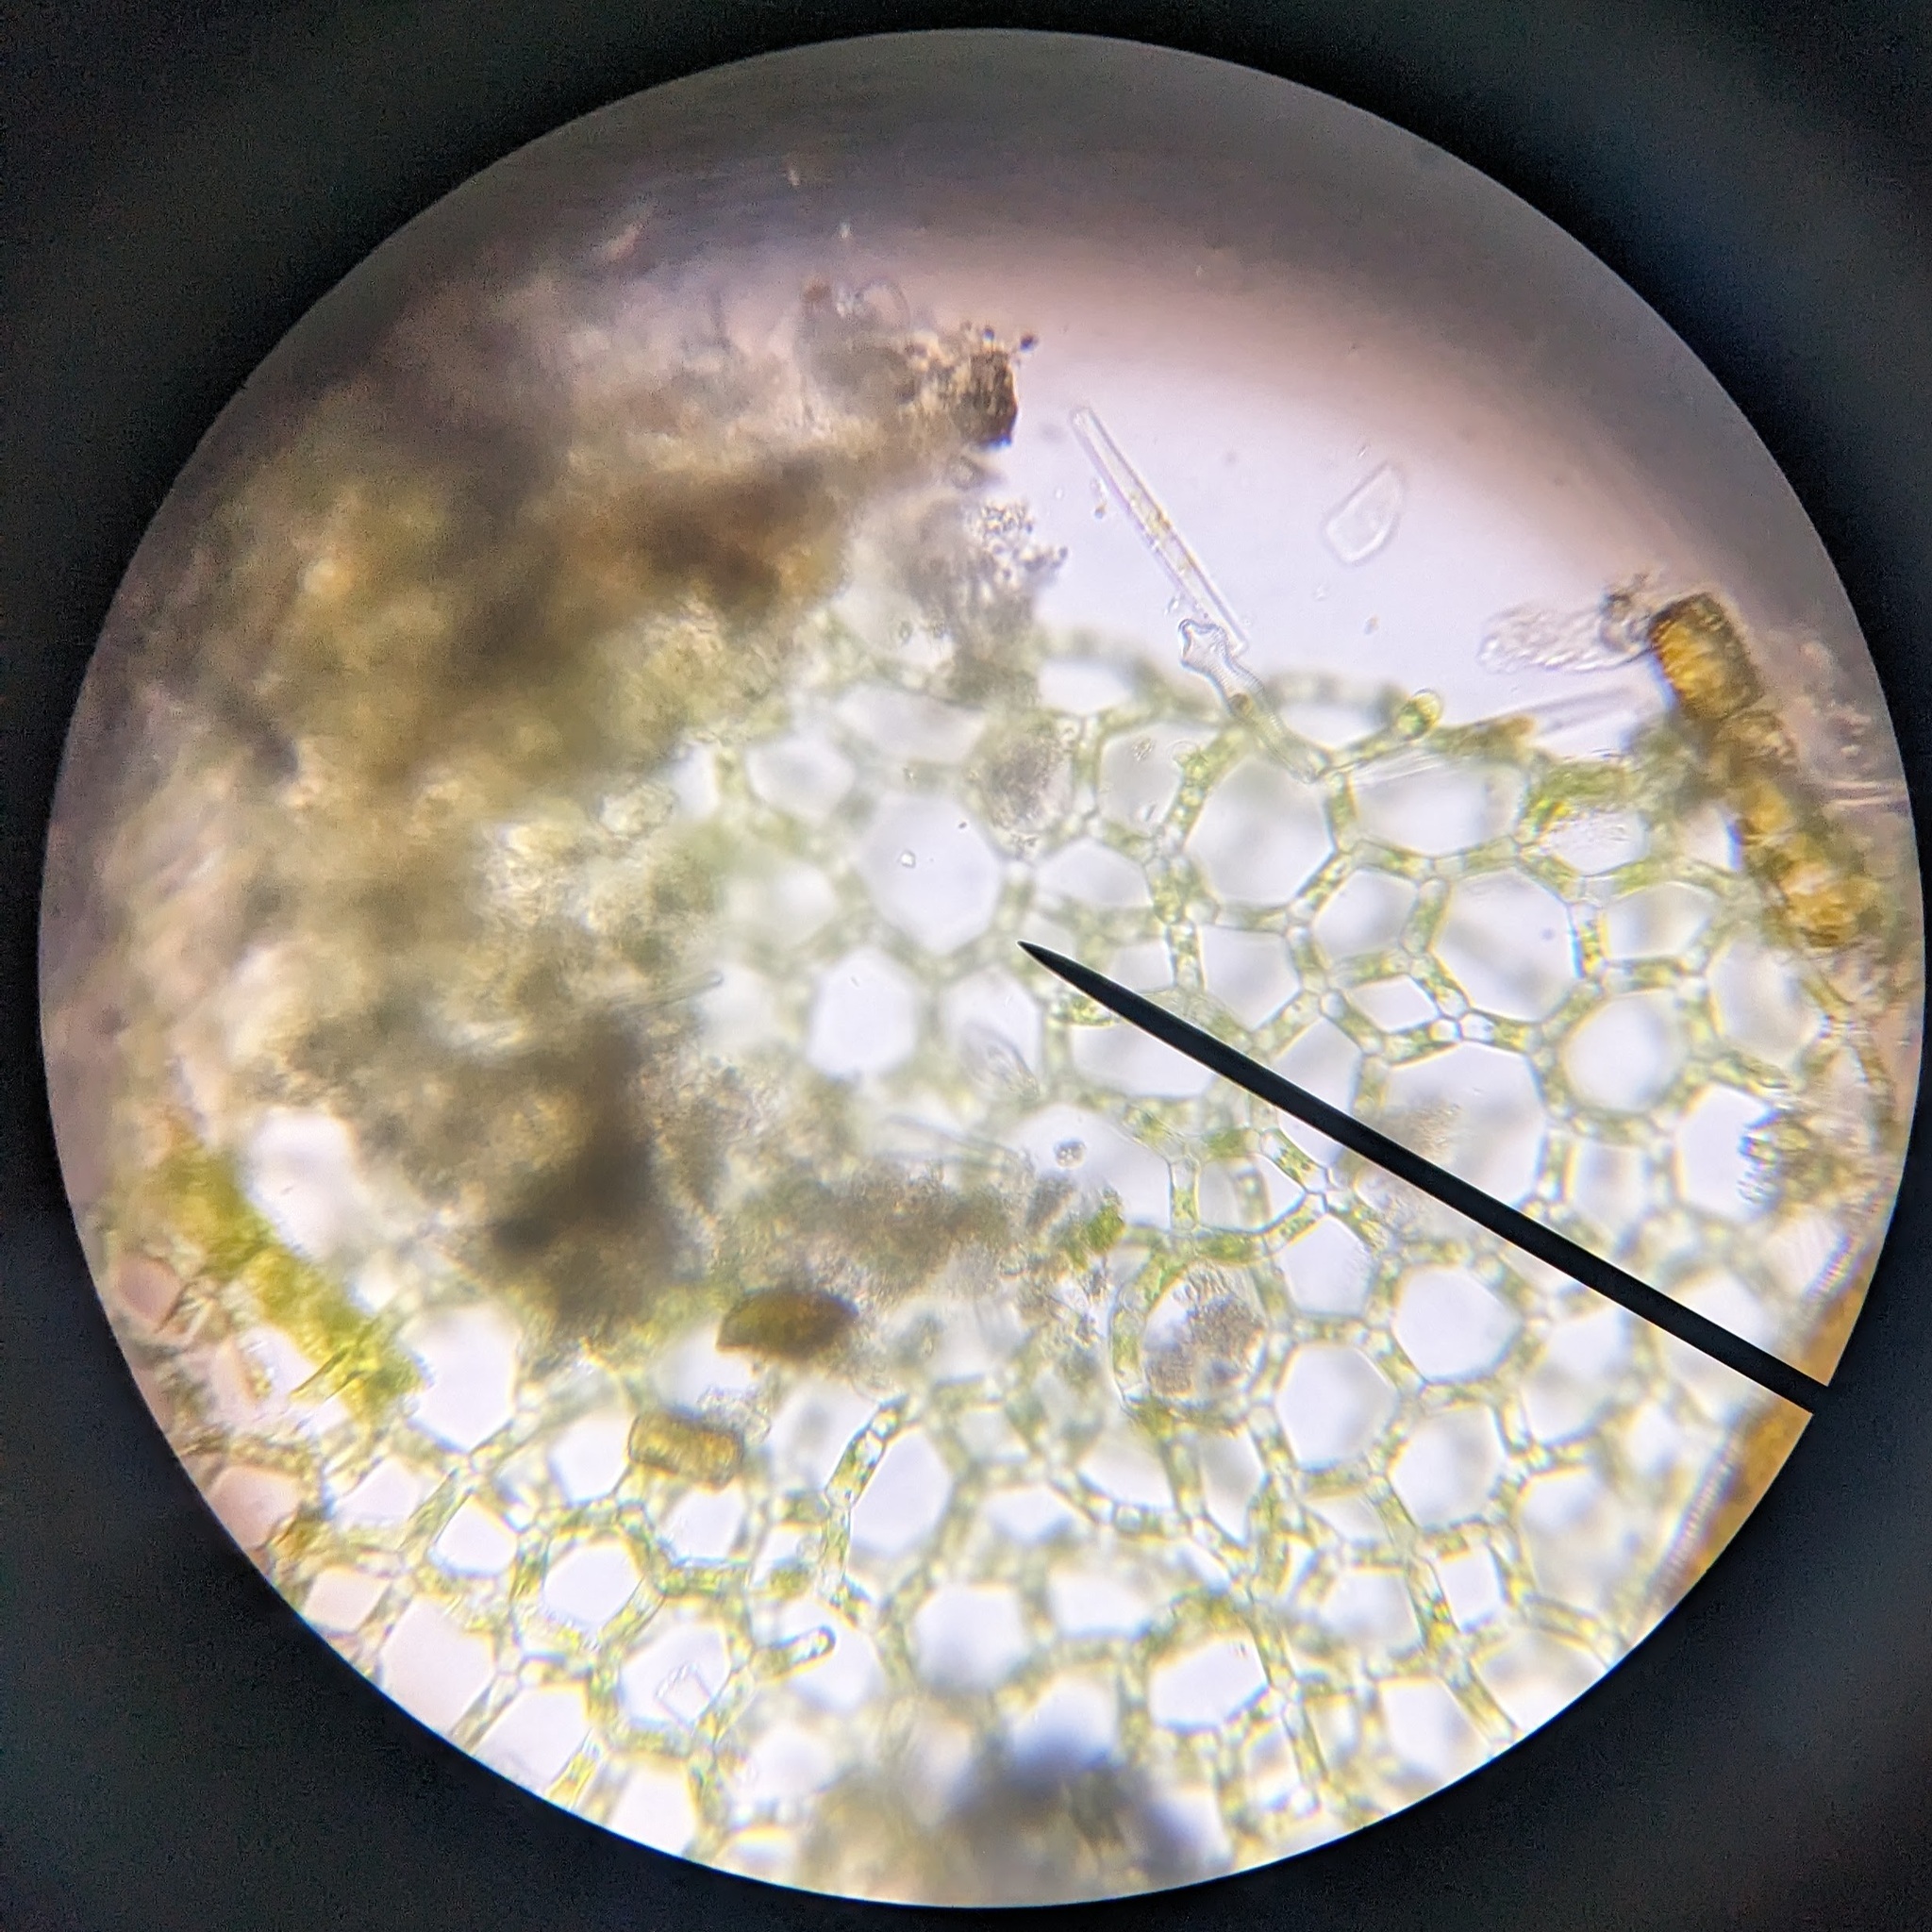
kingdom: Plantae
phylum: Chlorophyta
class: Chlorophyceae
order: Sphaeropleales
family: Hydrodictyaceae
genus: Hydrodictyon
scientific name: Hydrodictyon reticulatum
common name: Water net
